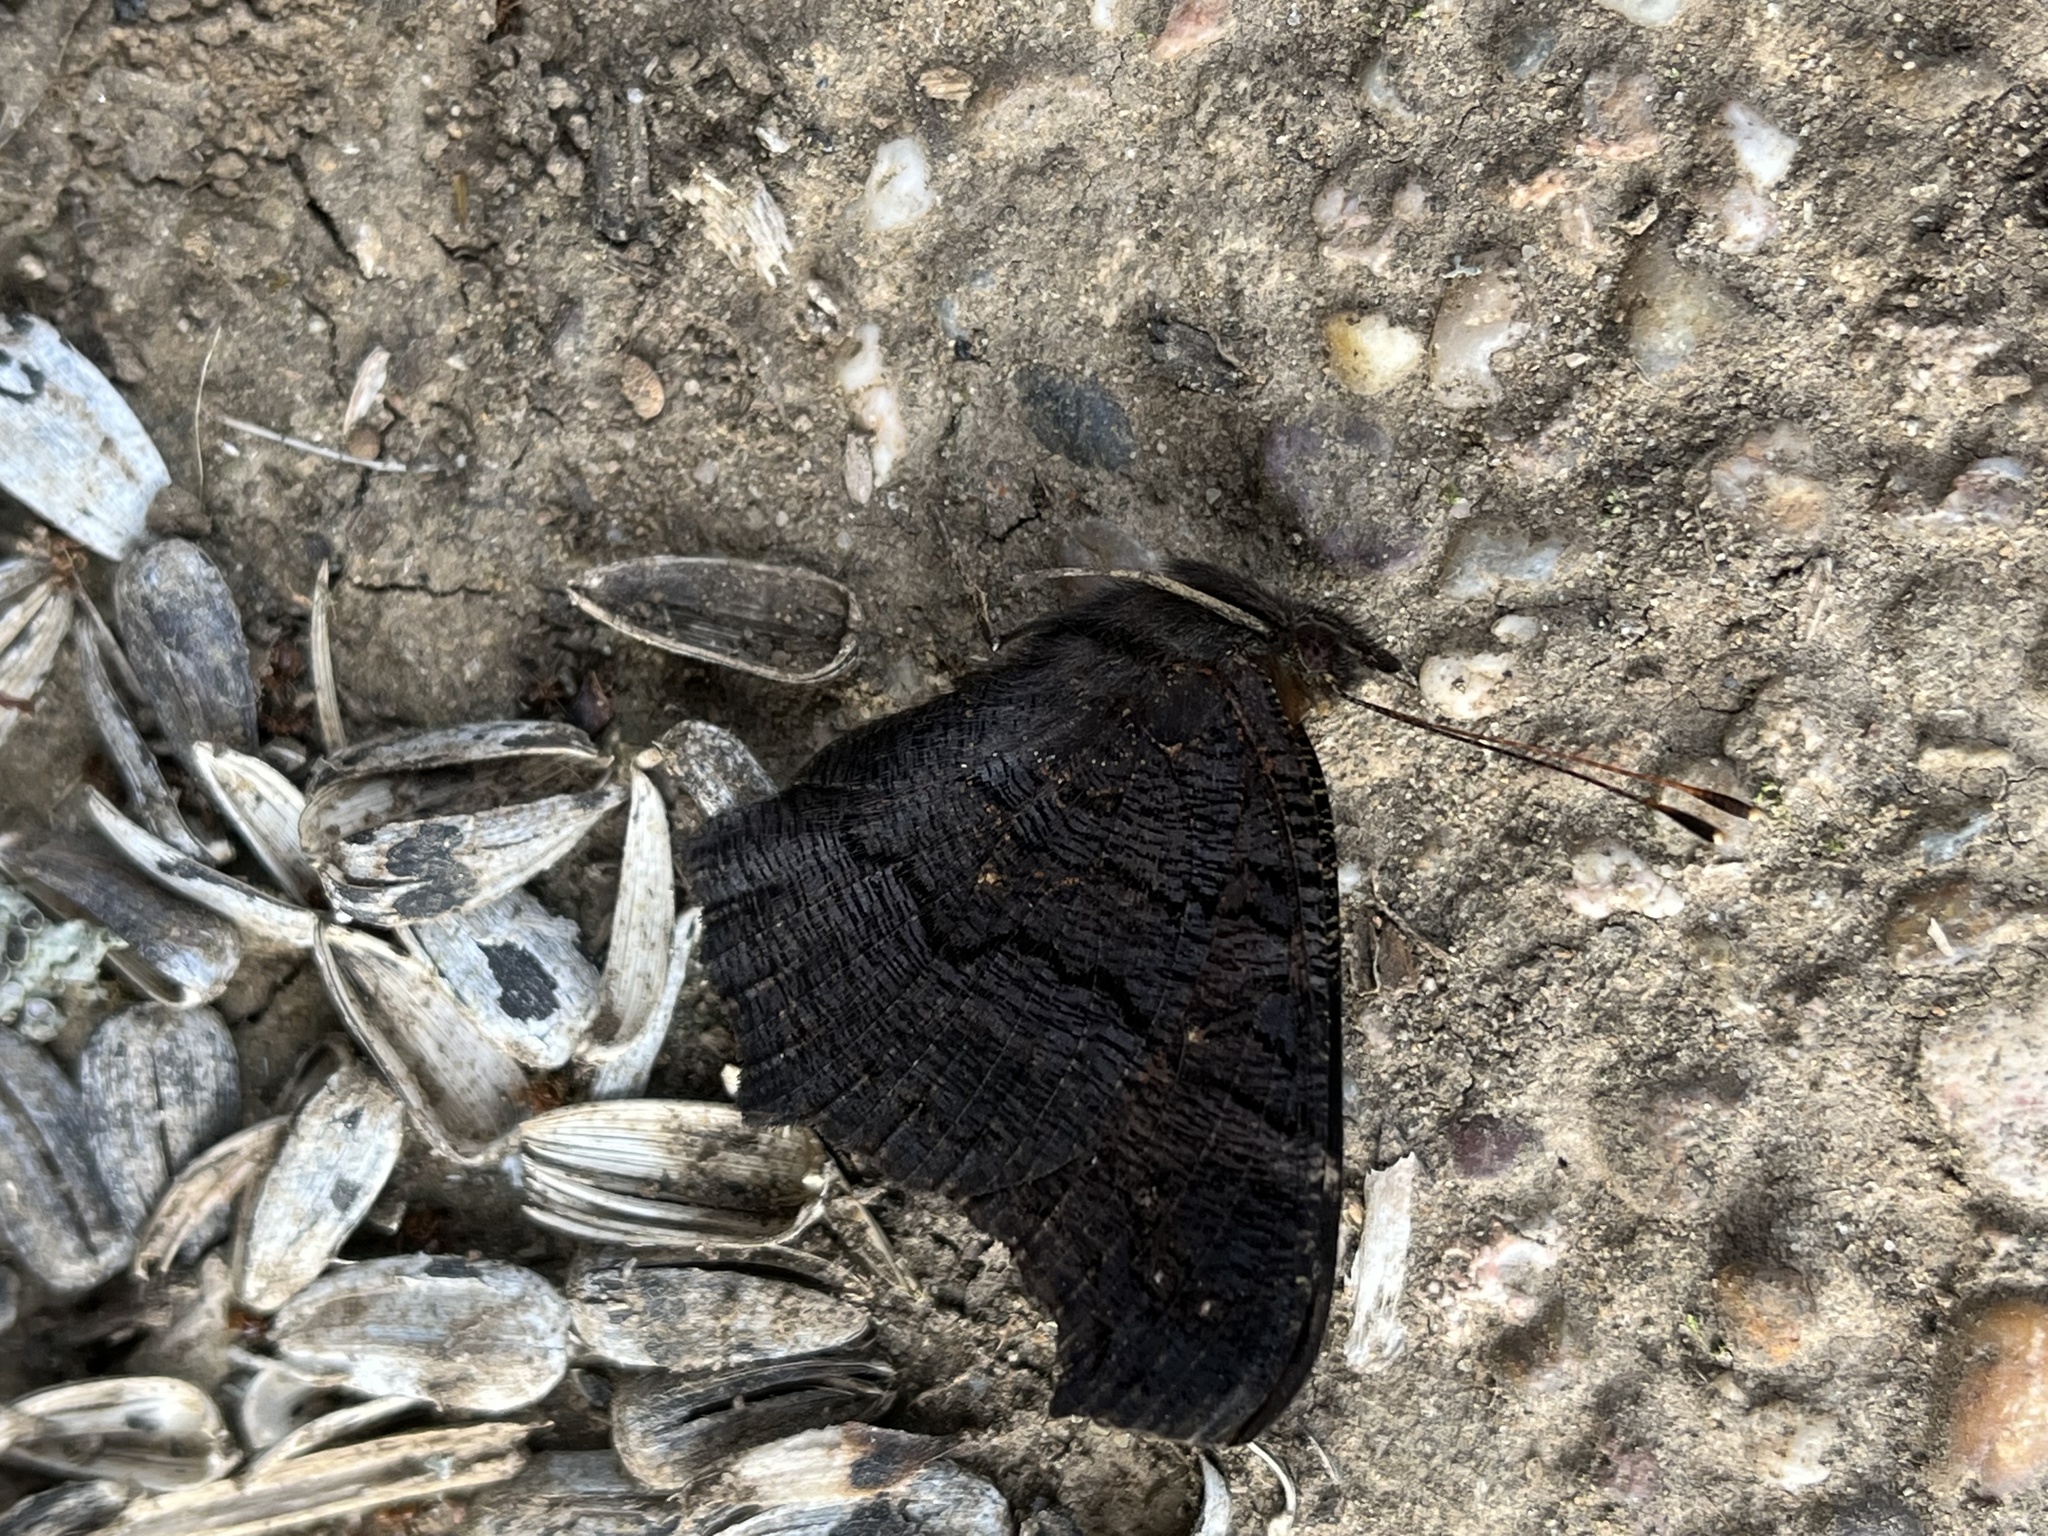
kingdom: Animalia
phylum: Arthropoda
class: Insecta
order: Lepidoptera
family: Nymphalidae
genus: Aglais
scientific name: Aglais io
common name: Peacock
